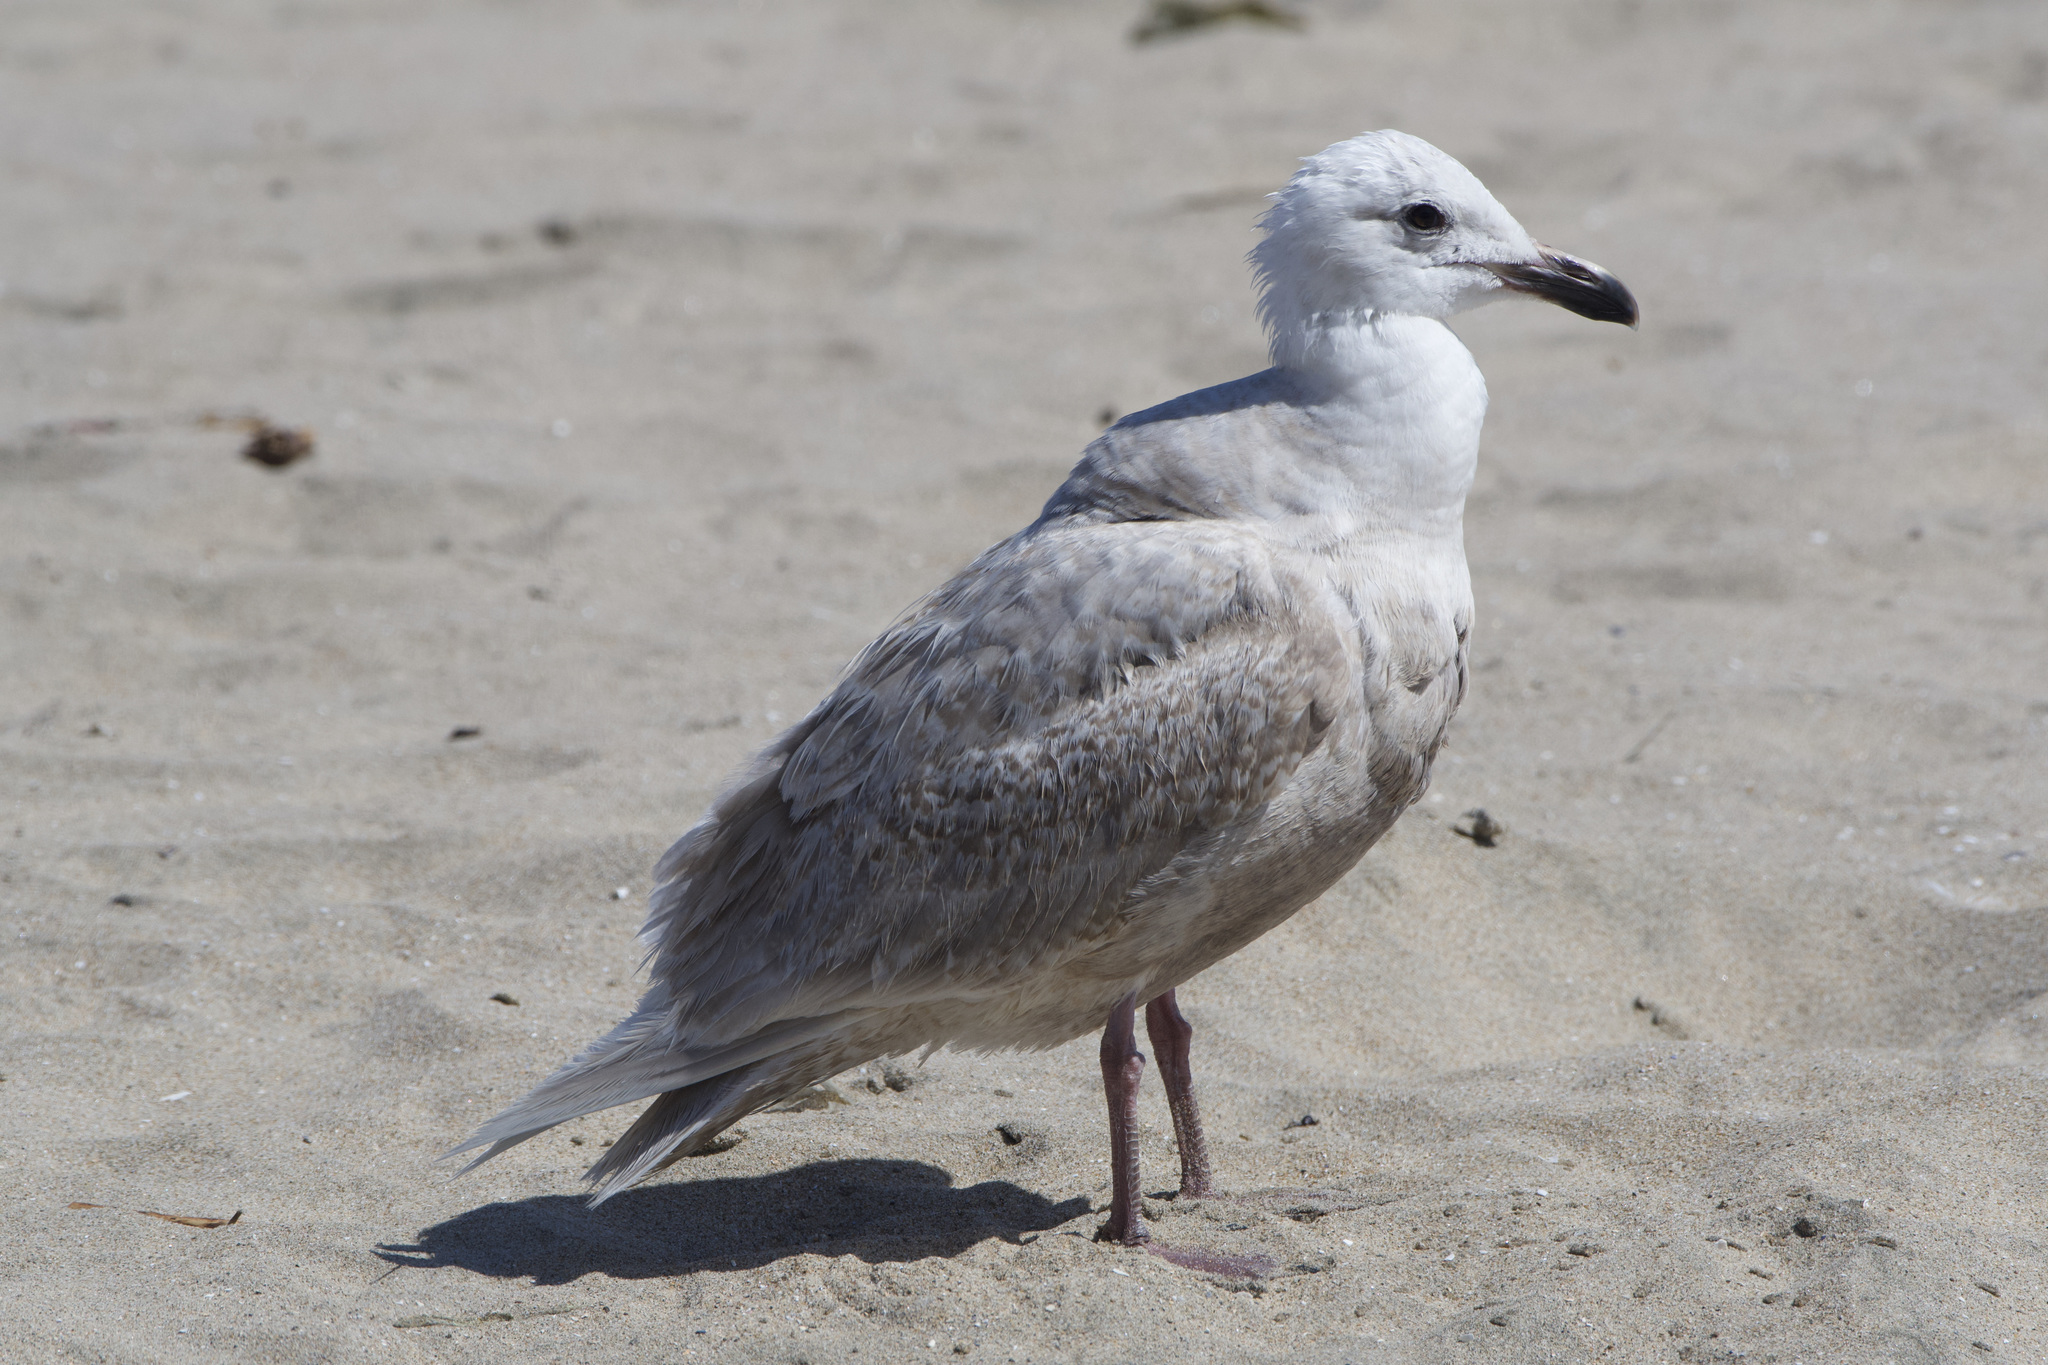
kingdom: Animalia
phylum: Chordata
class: Aves
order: Charadriiformes
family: Laridae
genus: Larus
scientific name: Larus glaucescens
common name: Glaucous-winged gull
